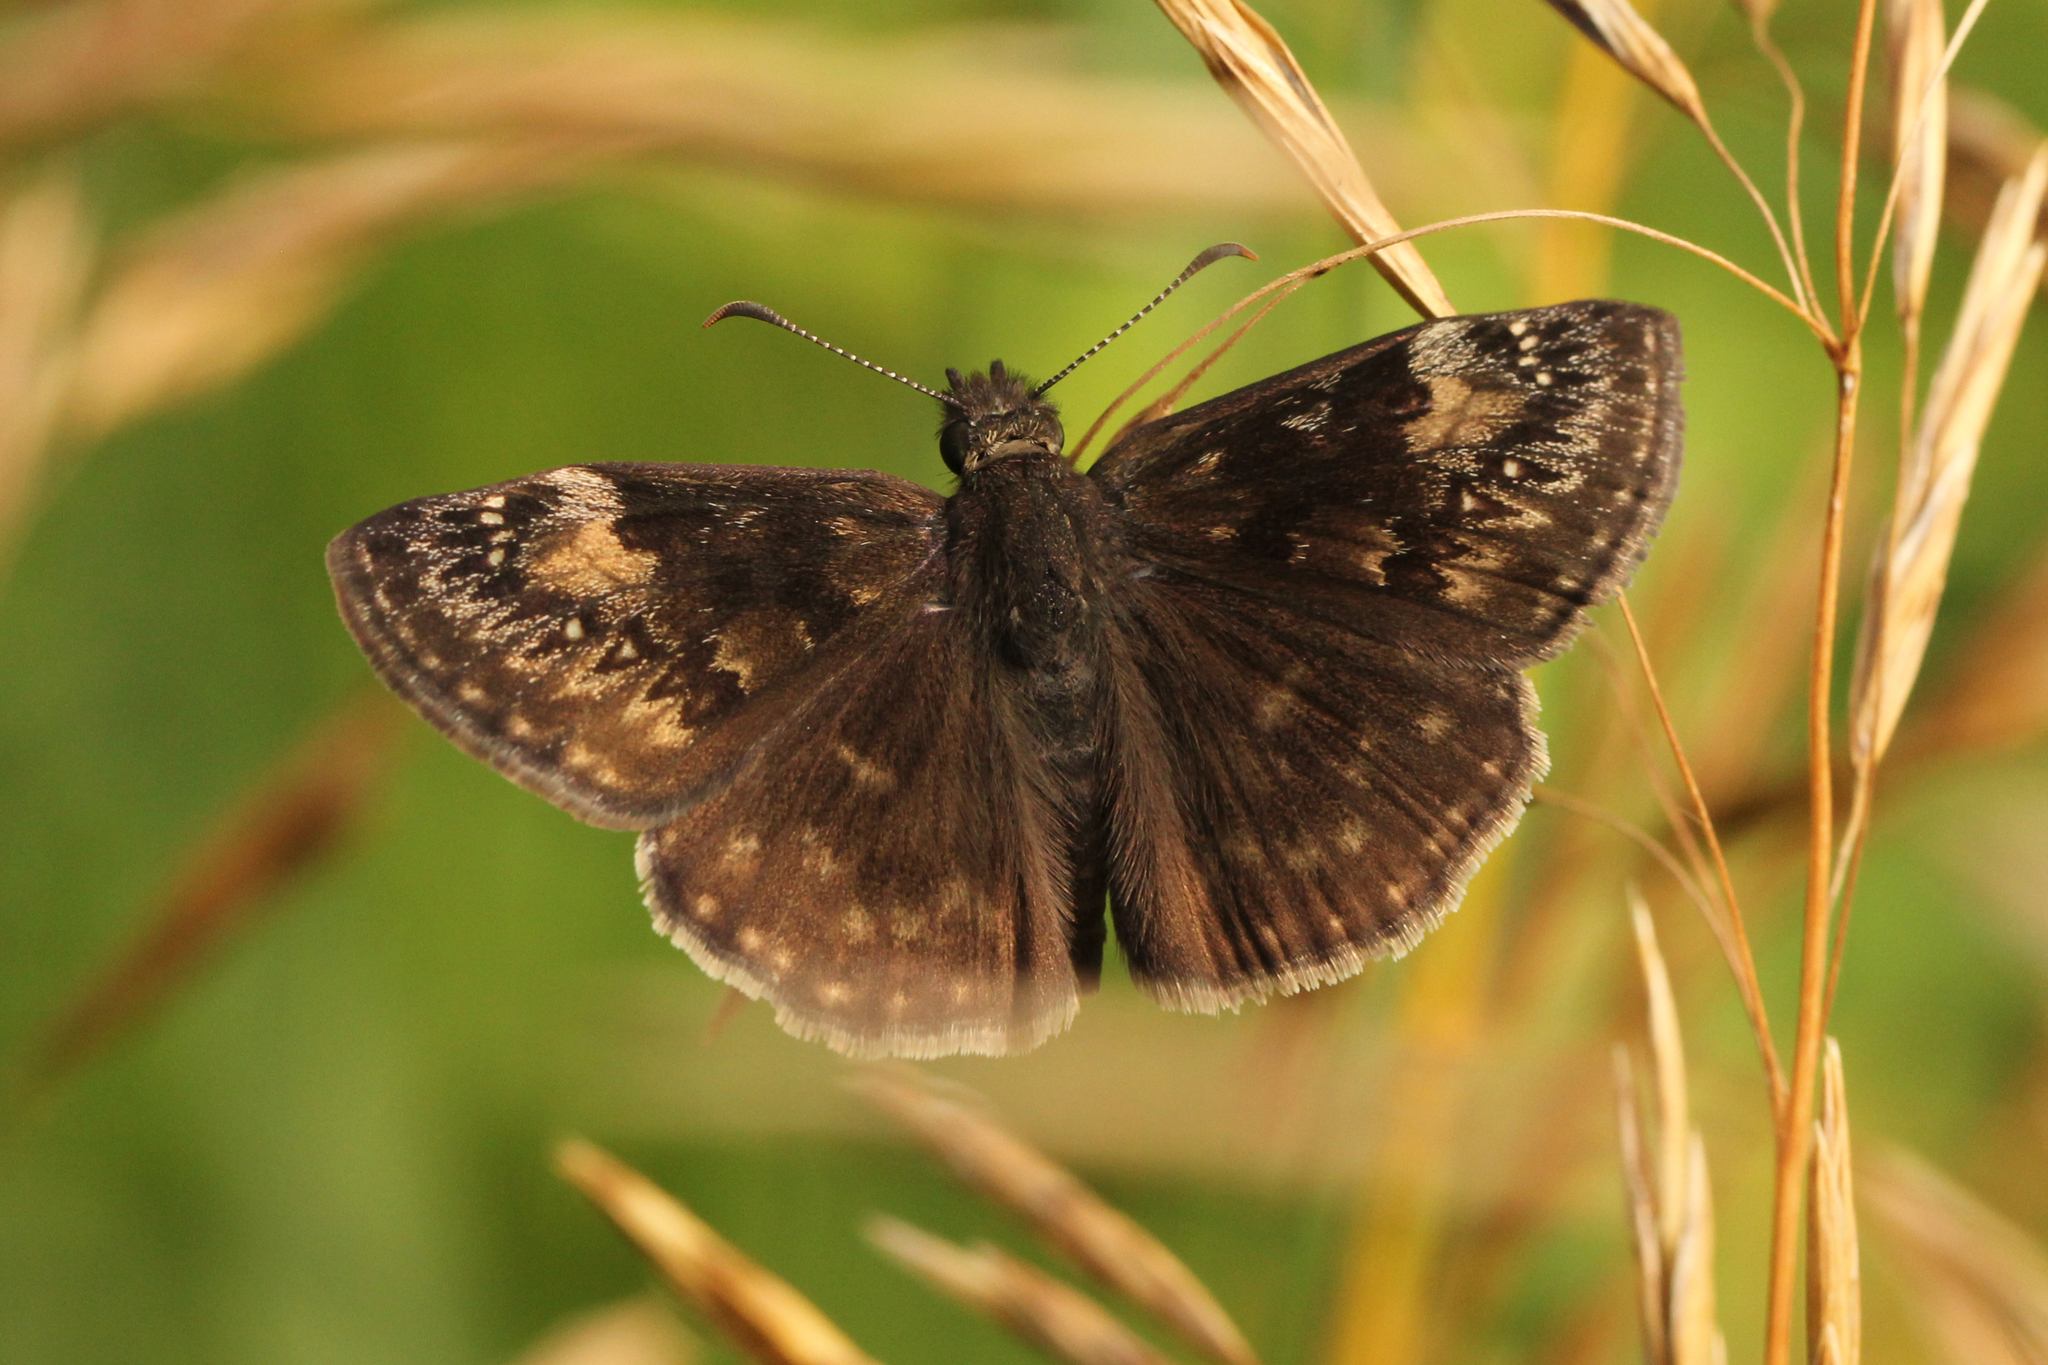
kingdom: Animalia
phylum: Arthropoda
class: Insecta
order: Lepidoptera
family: Hesperiidae
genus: Erynnis
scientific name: Erynnis baptisiae
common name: Wild indigo duskywing
